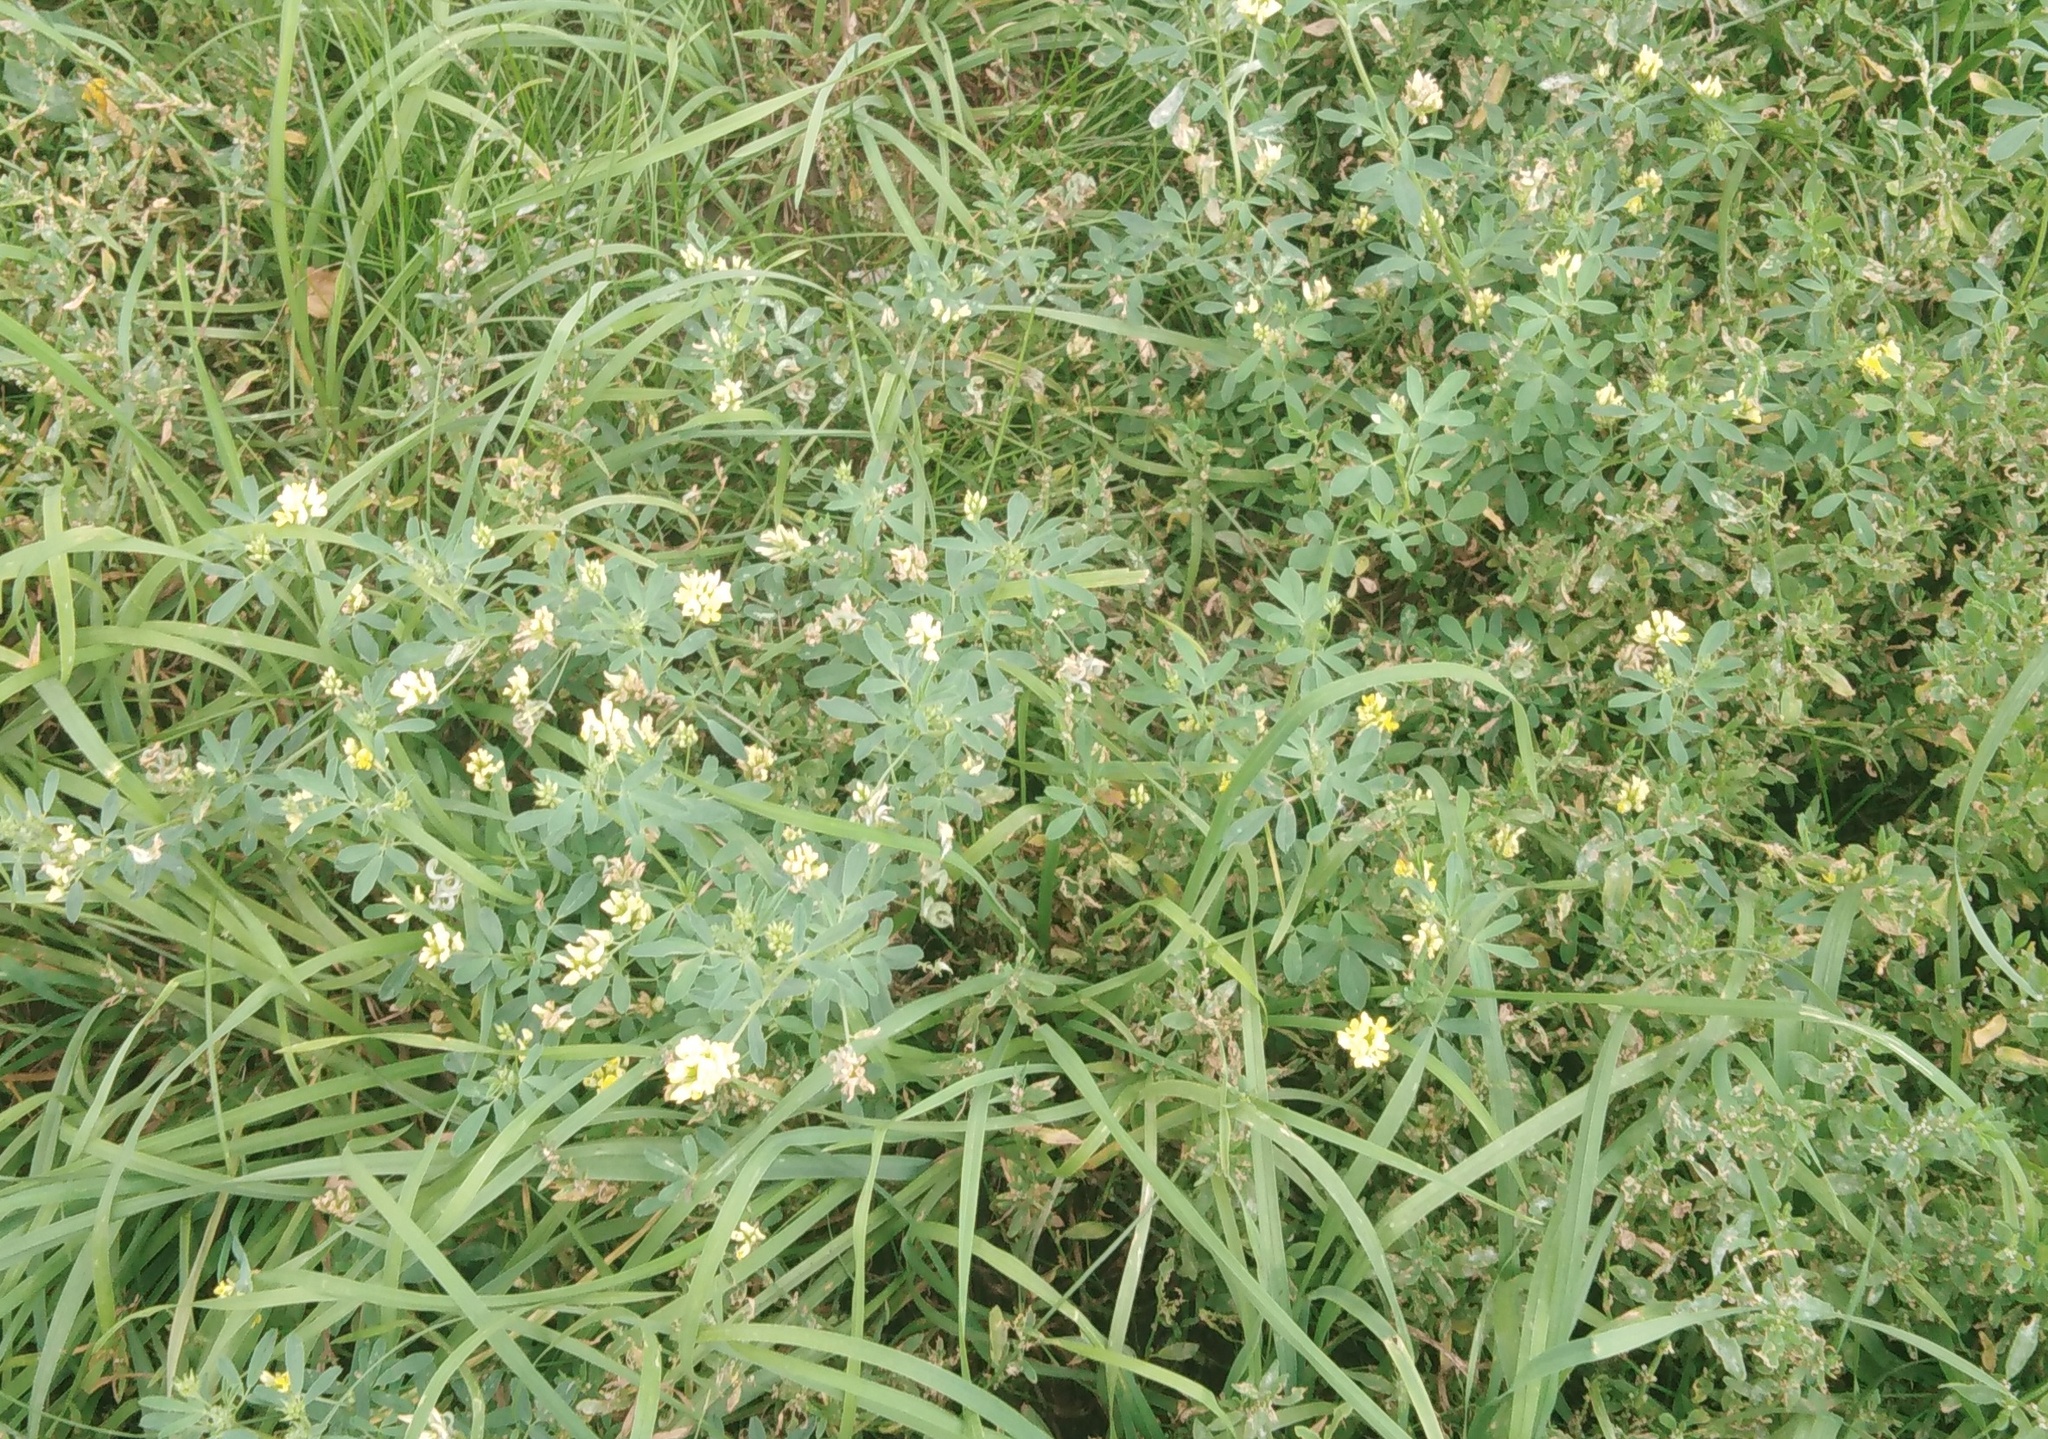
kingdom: Plantae
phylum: Tracheophyta
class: Magnoliopsida
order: Fabales
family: Fabaceae
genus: Medicago
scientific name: Medicago varia
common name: Sand lucerne
